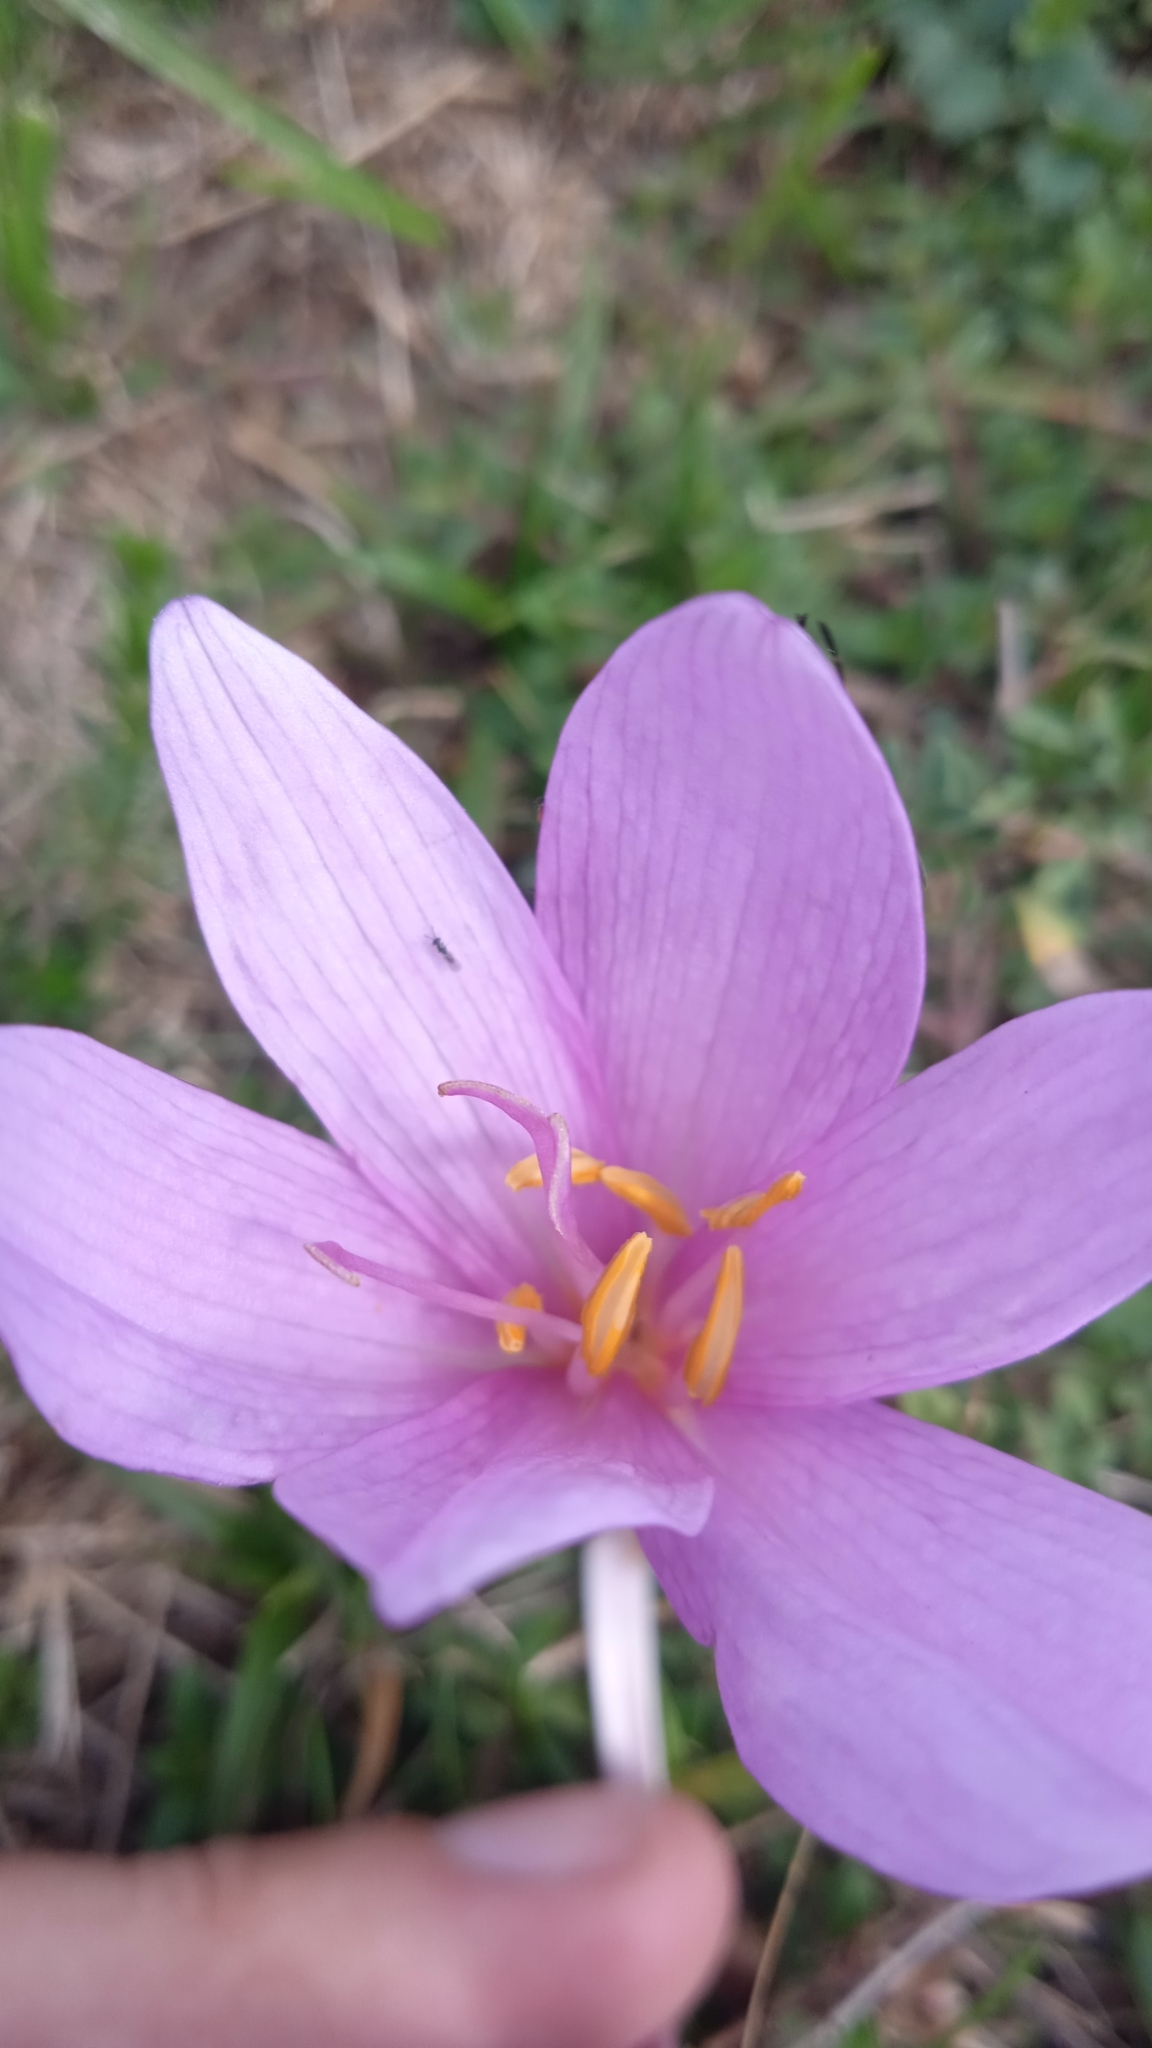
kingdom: Plantae
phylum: Tracheophyta
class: Liliopsida
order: Liliales
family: Colchicaceae
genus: Colchicum
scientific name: Colchicum autumnale
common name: Autumn crocus
